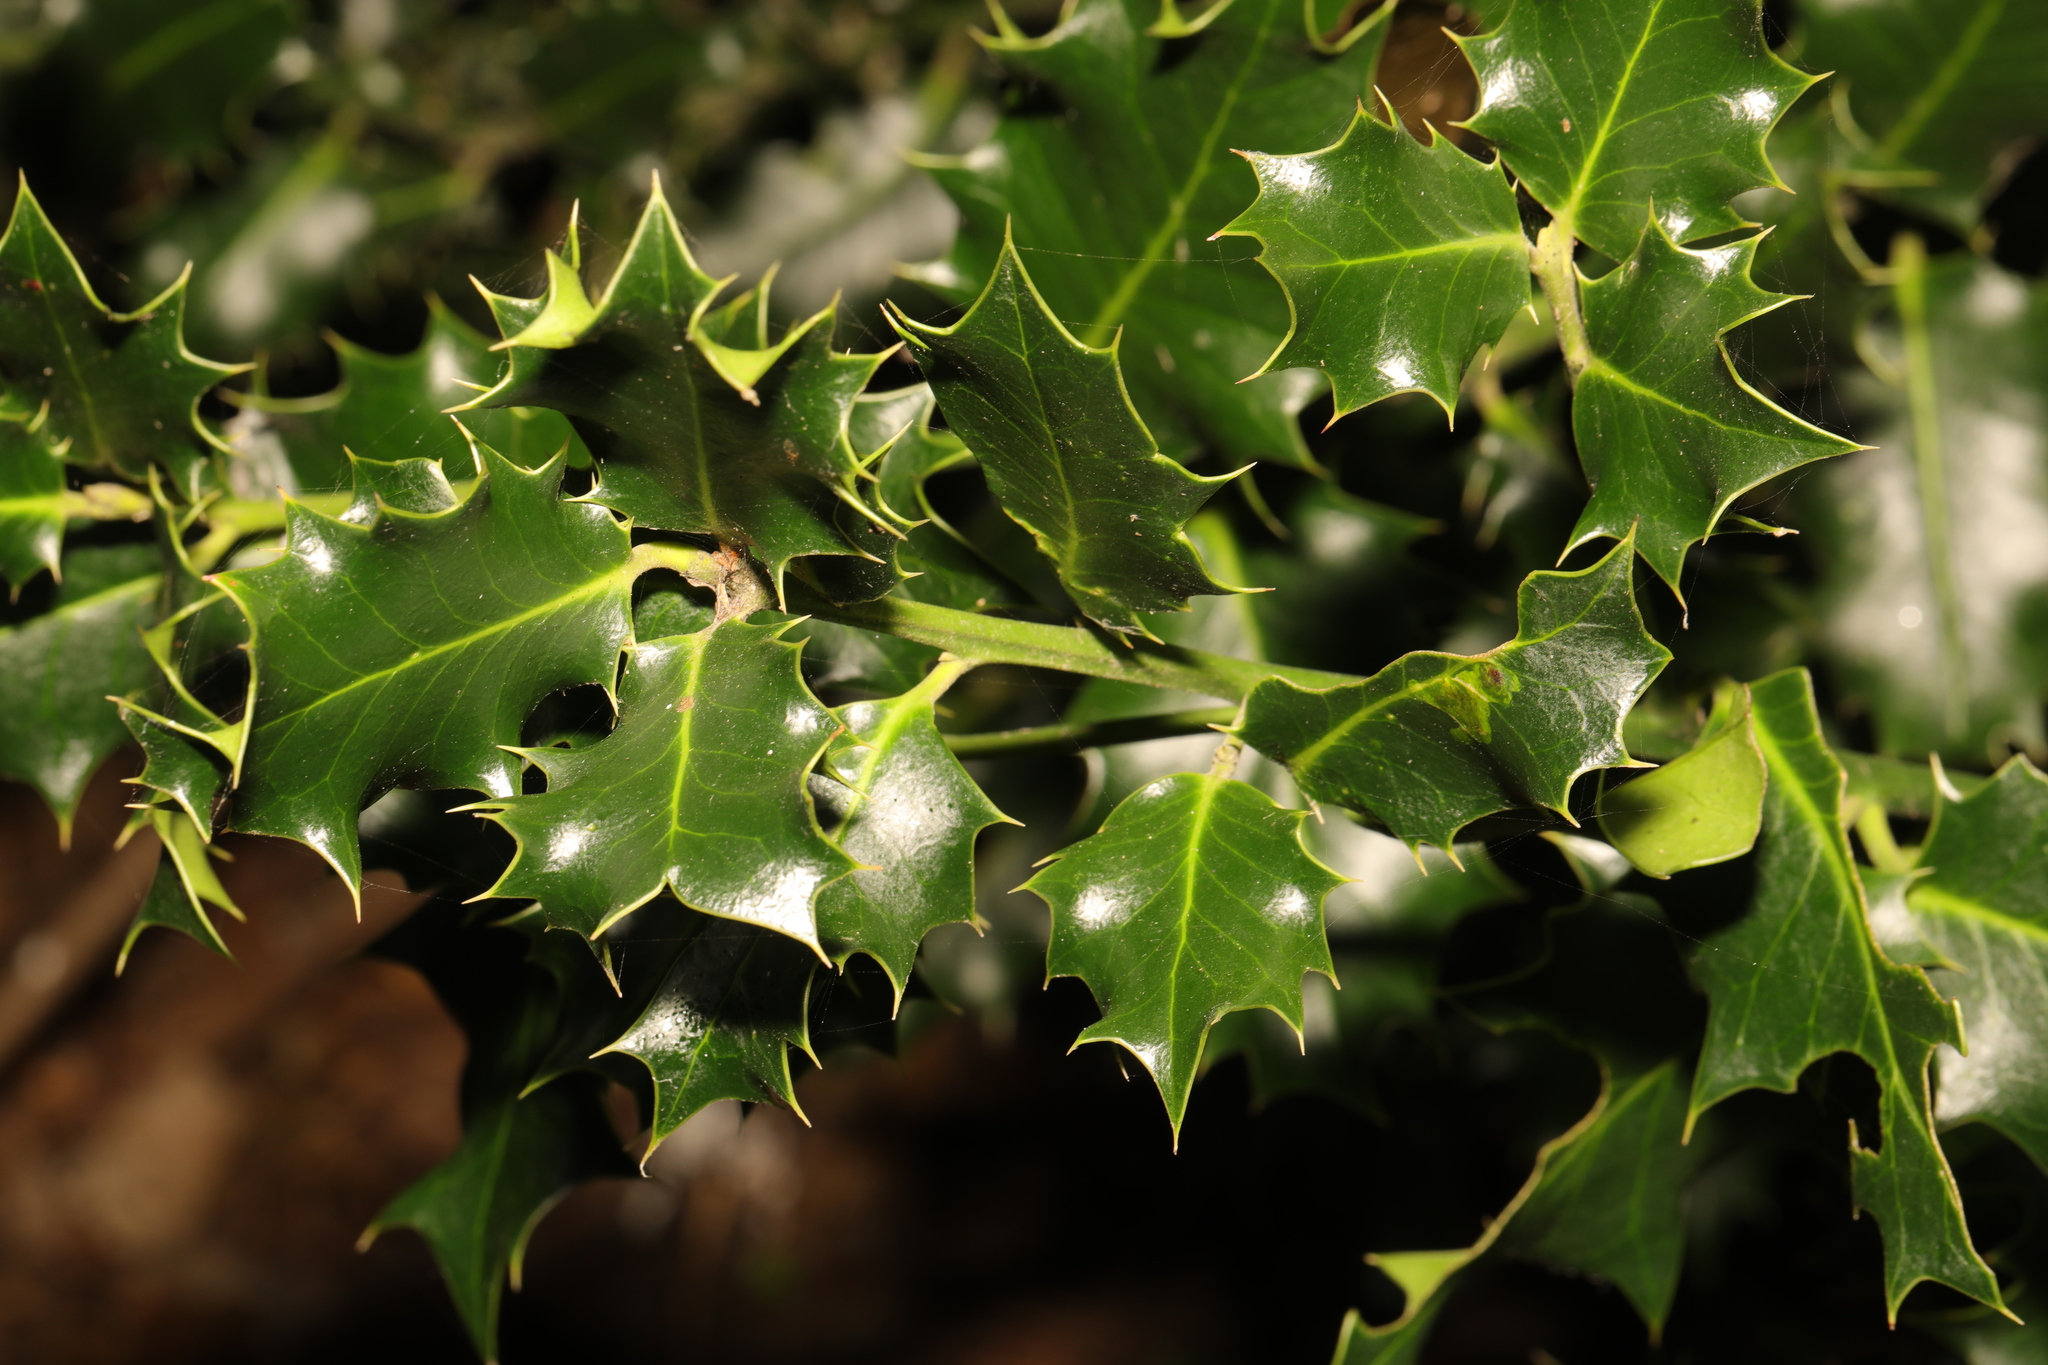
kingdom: Plantae
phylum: Tracheophyta
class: Magnoliopsida
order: Aquifoliales
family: Aquifoliaceae
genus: Ilex
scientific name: Ilex aquifolium
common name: English holly
